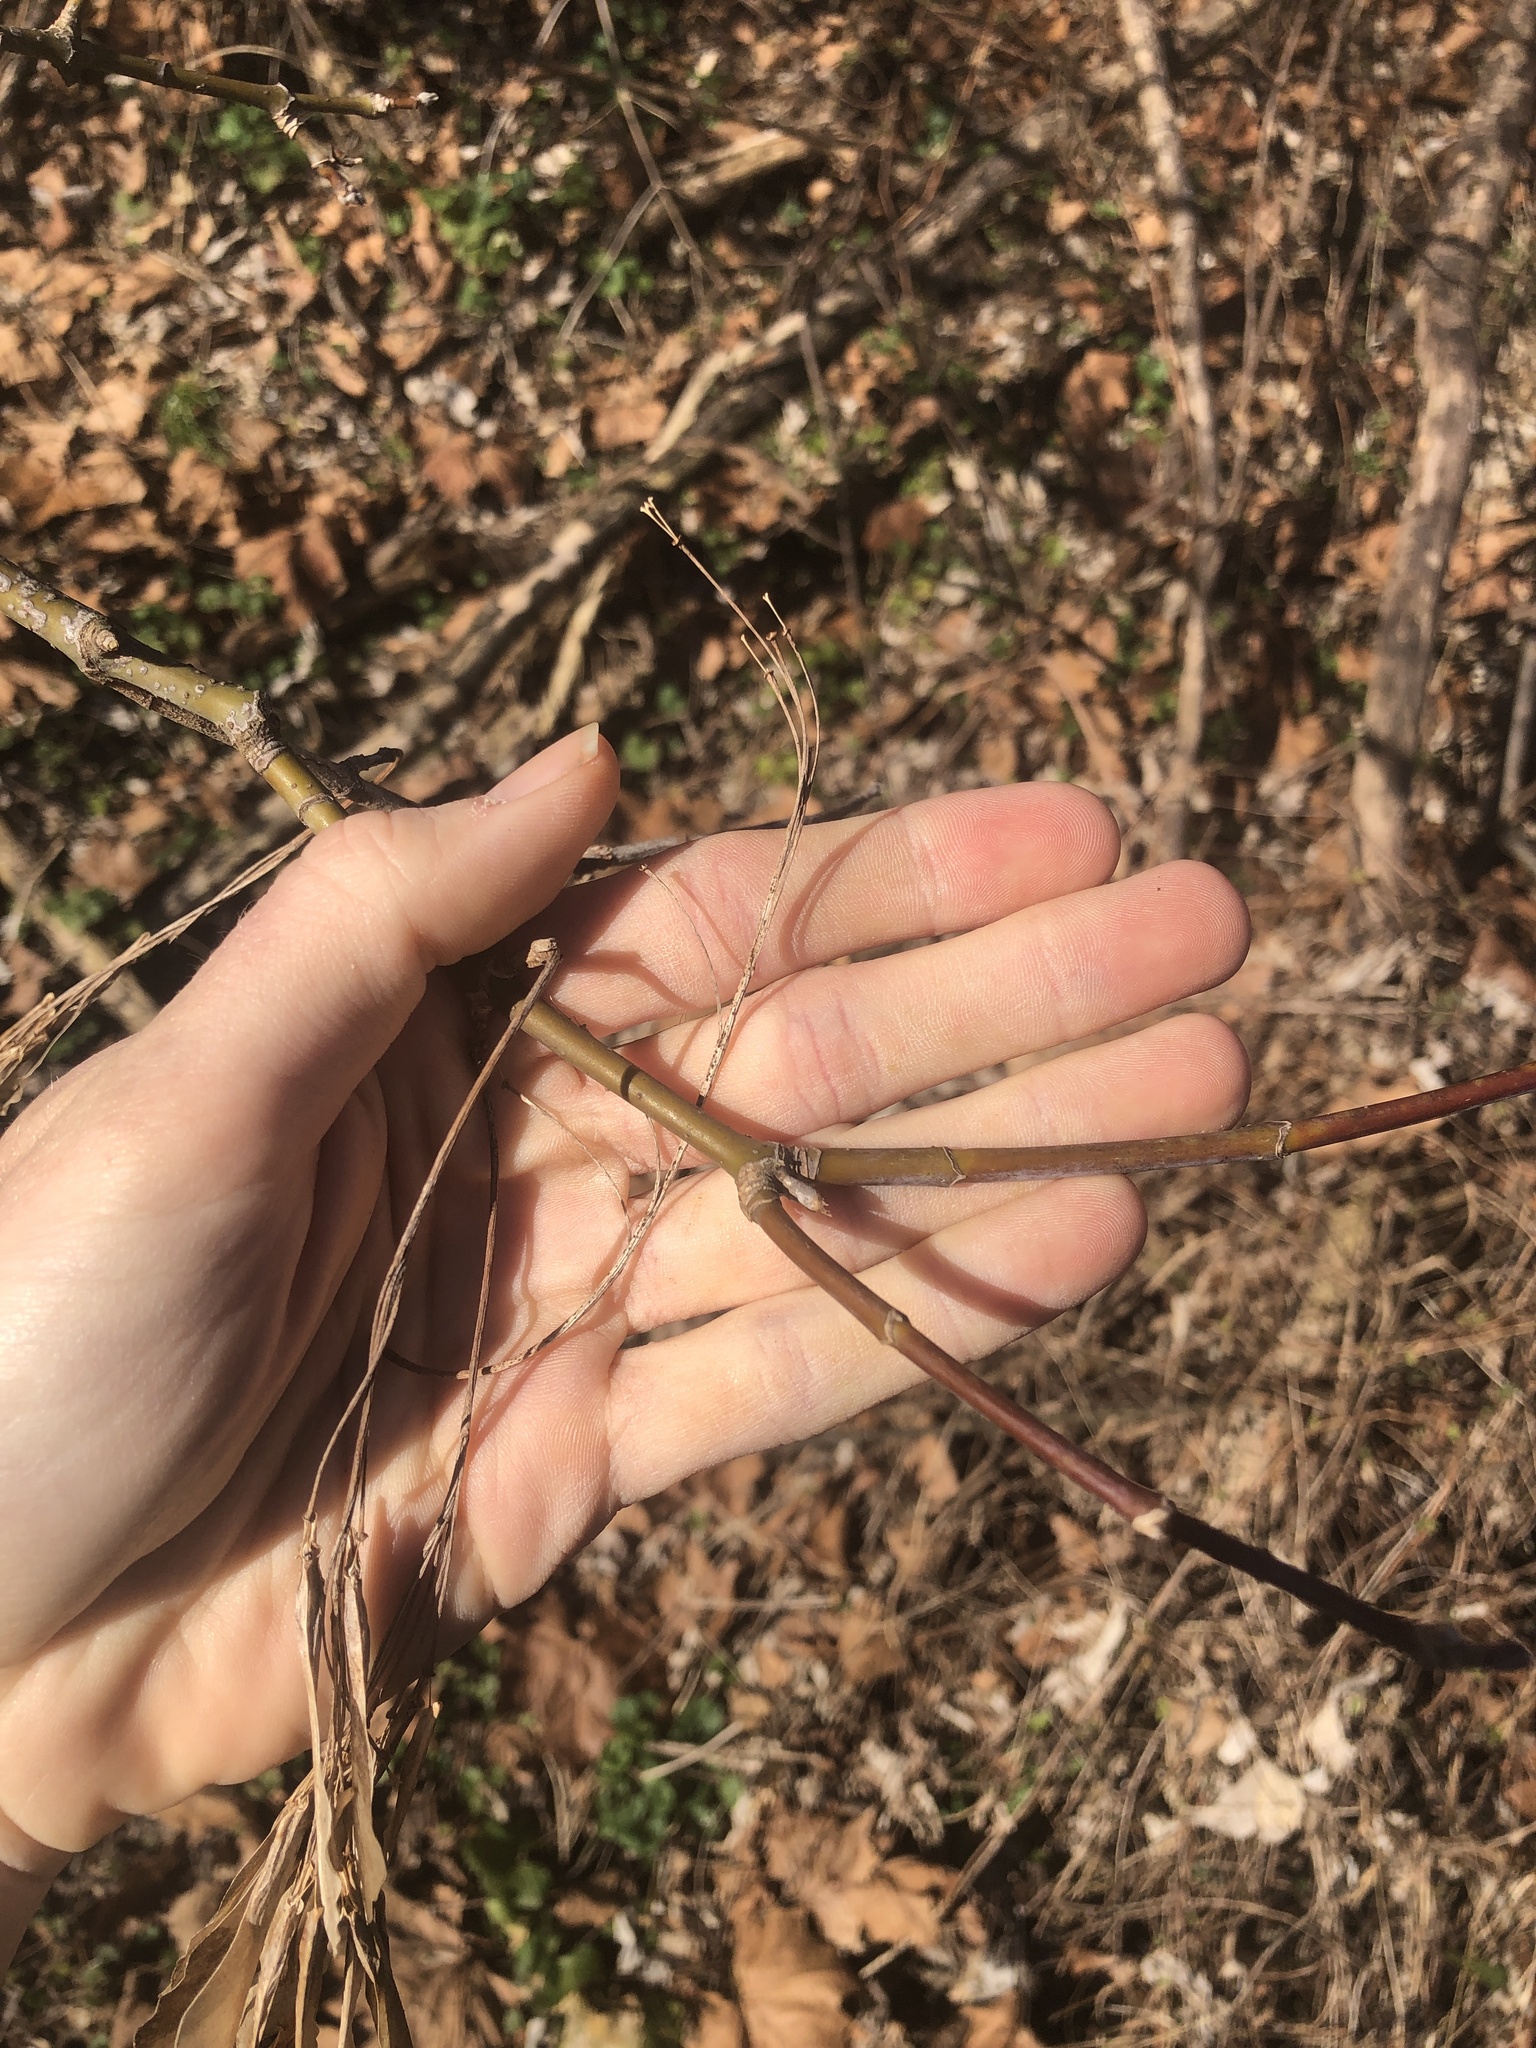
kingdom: Plantae
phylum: Tracheophyta
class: Magnoliopsida
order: Sapindales
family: Sapindaceae
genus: Acer
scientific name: Acer negundo
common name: Ashleaf maple
